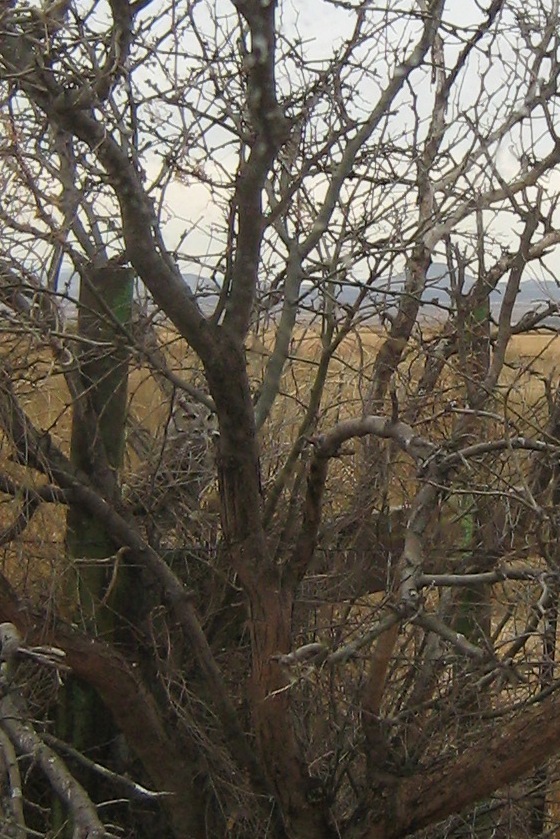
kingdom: Animalia
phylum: Chordata
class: Aves
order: Strigiformes
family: Strigidae
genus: Bubo
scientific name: Bubo virginianus
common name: Great horned owl
